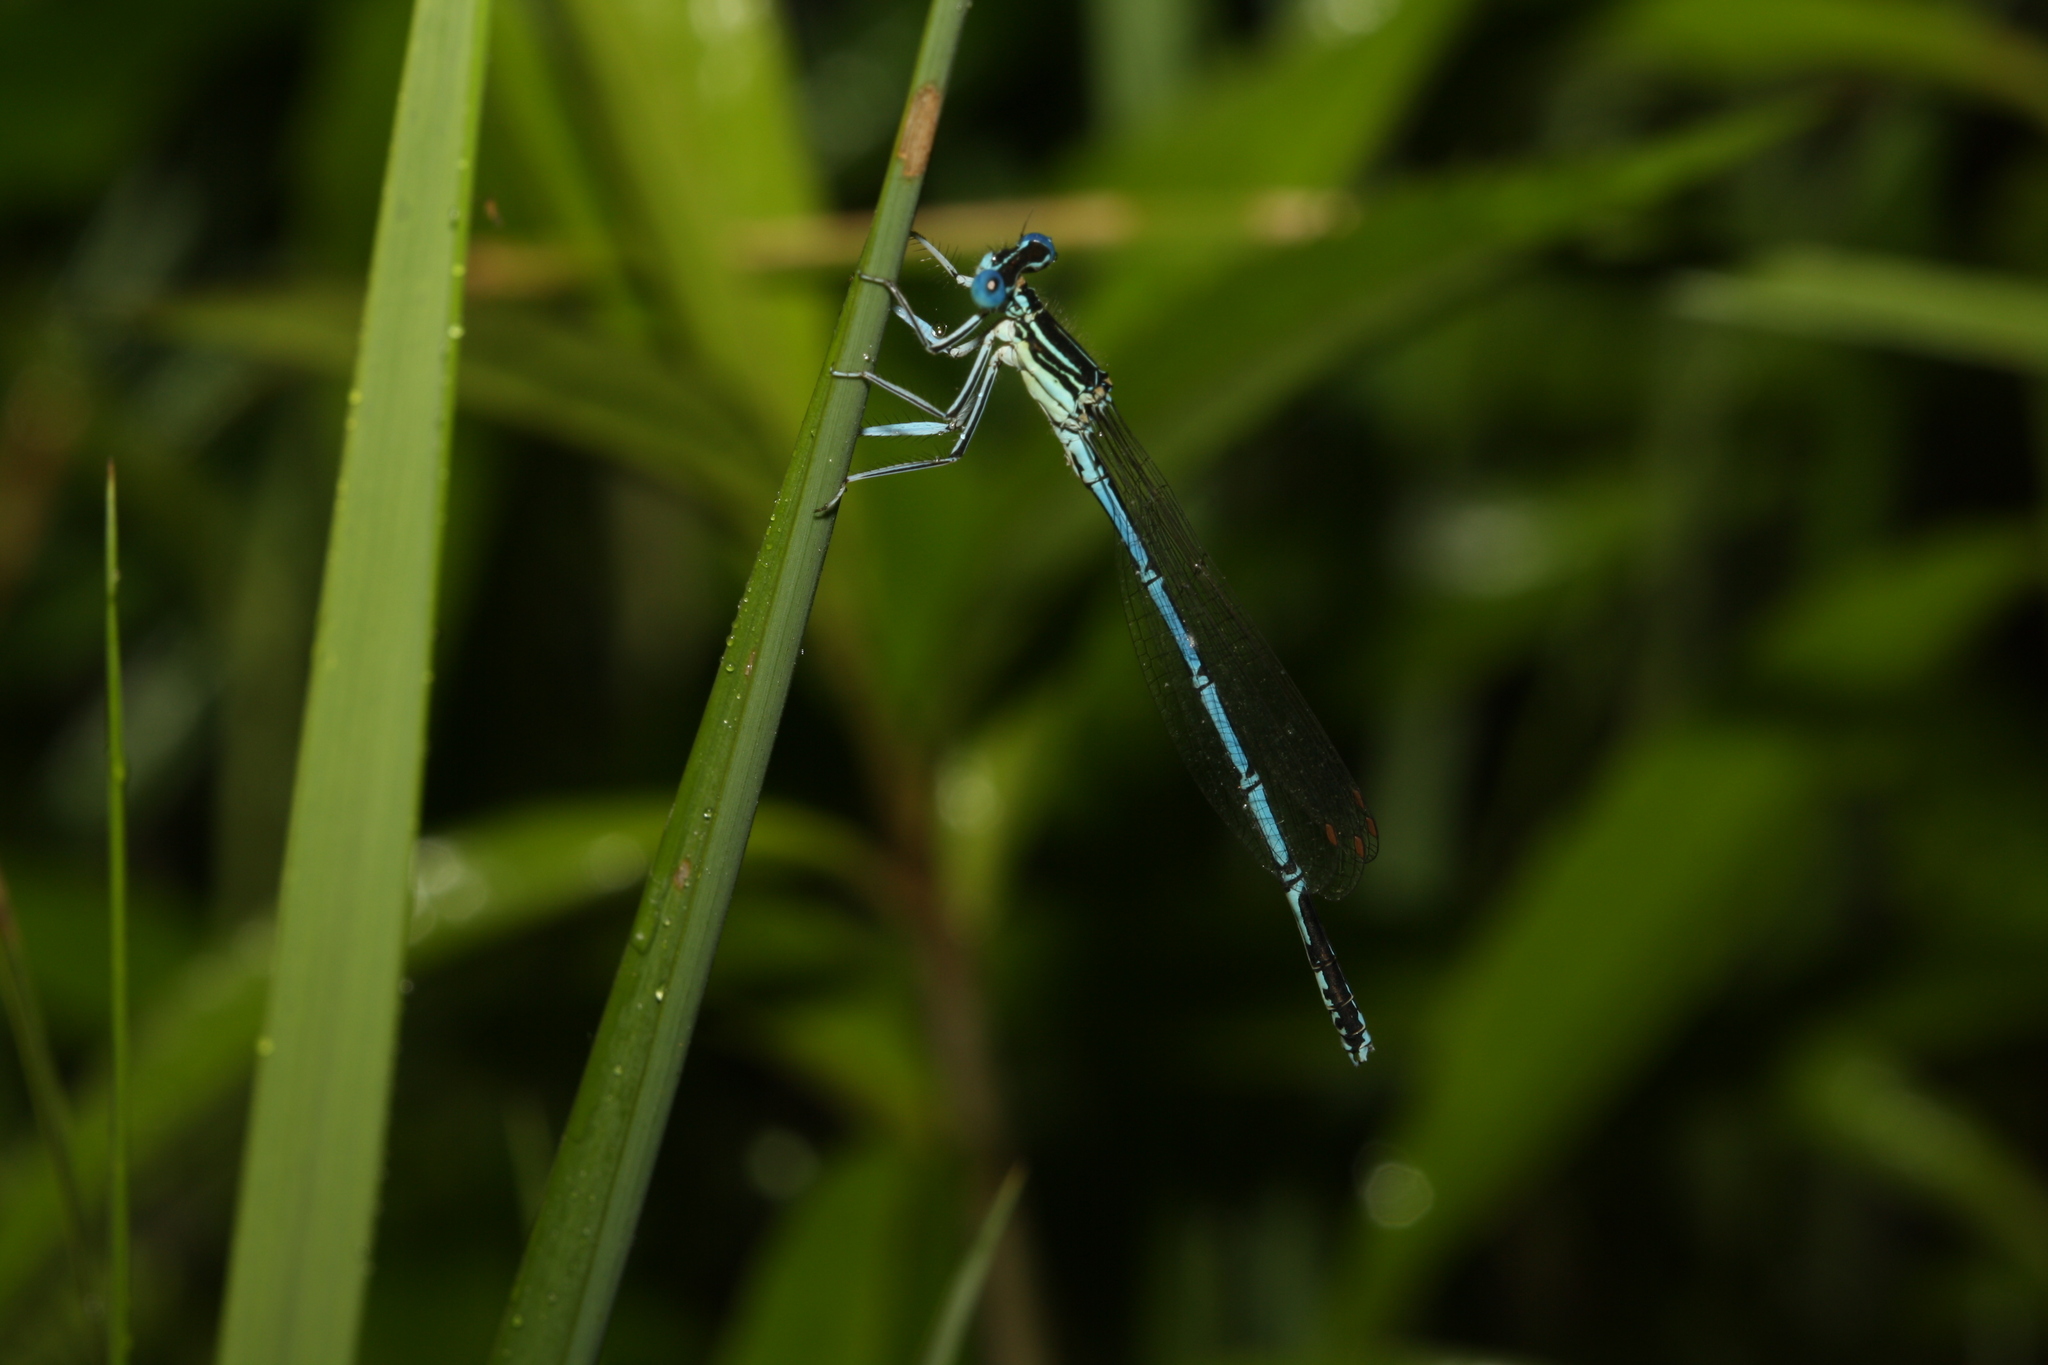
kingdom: Animalia
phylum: Arthropoda
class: Insecta
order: Odonata
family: Platycnemididae
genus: Platycnemis
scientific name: Platycnemis pennipes
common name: White-legged damselfly
